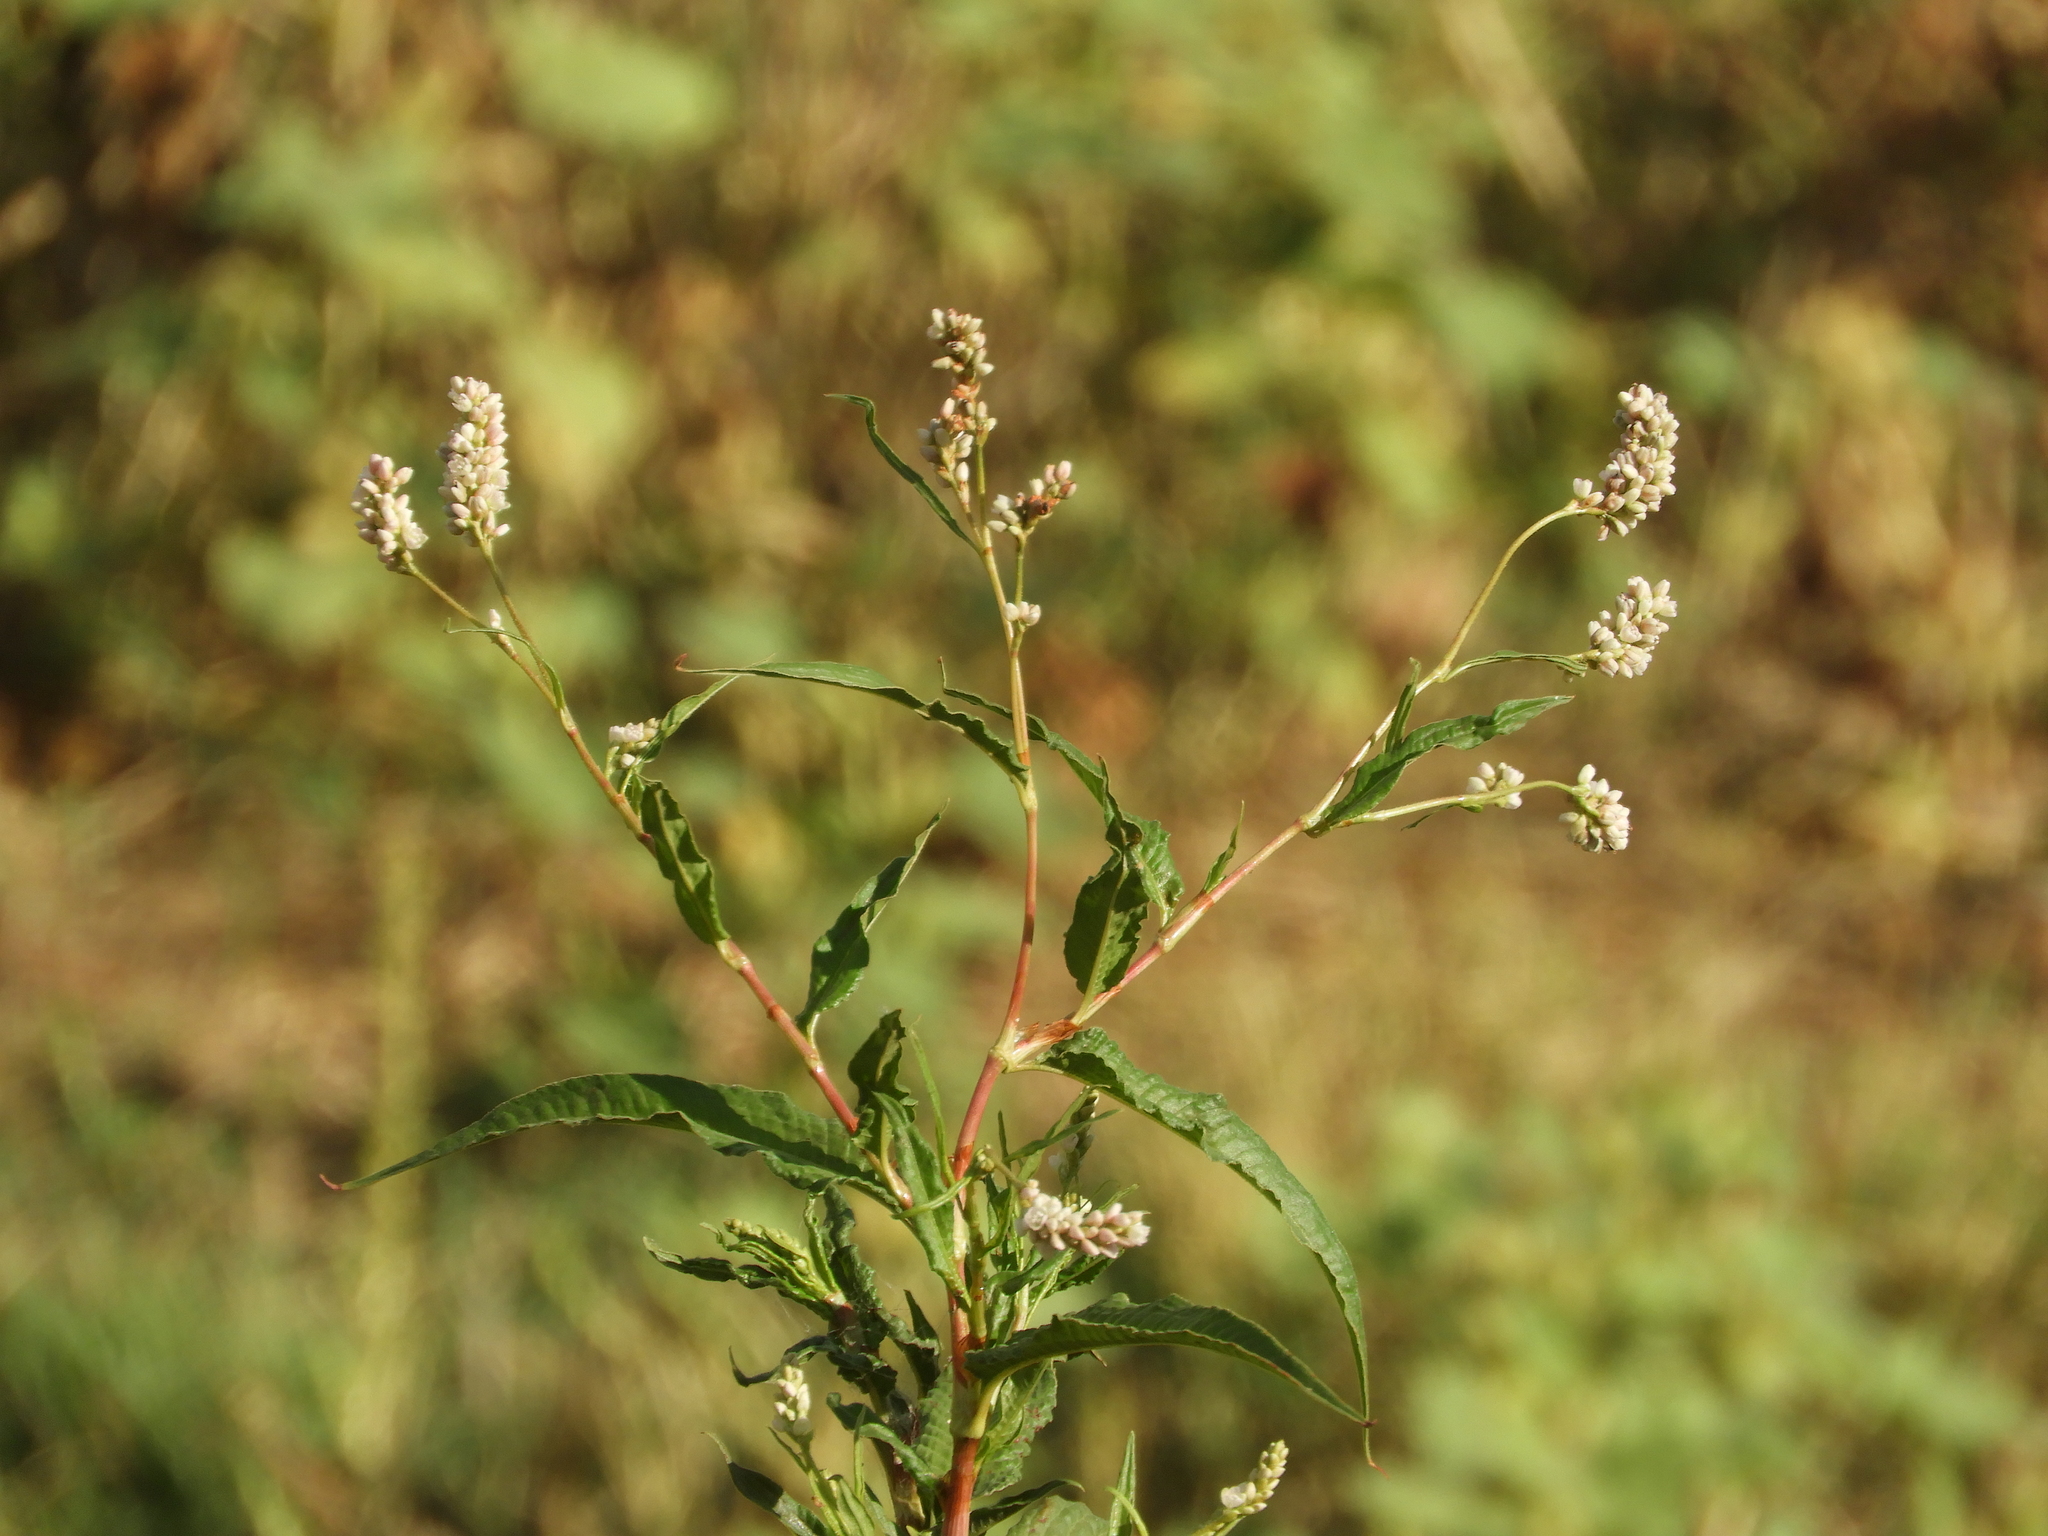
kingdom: Plantae
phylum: Tracheophyta
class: Magnoliopsida
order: Caryophyllales
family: Polygonaceae
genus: Persicaria
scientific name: Persicaria lapathifolia
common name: Curlytop knotweed
